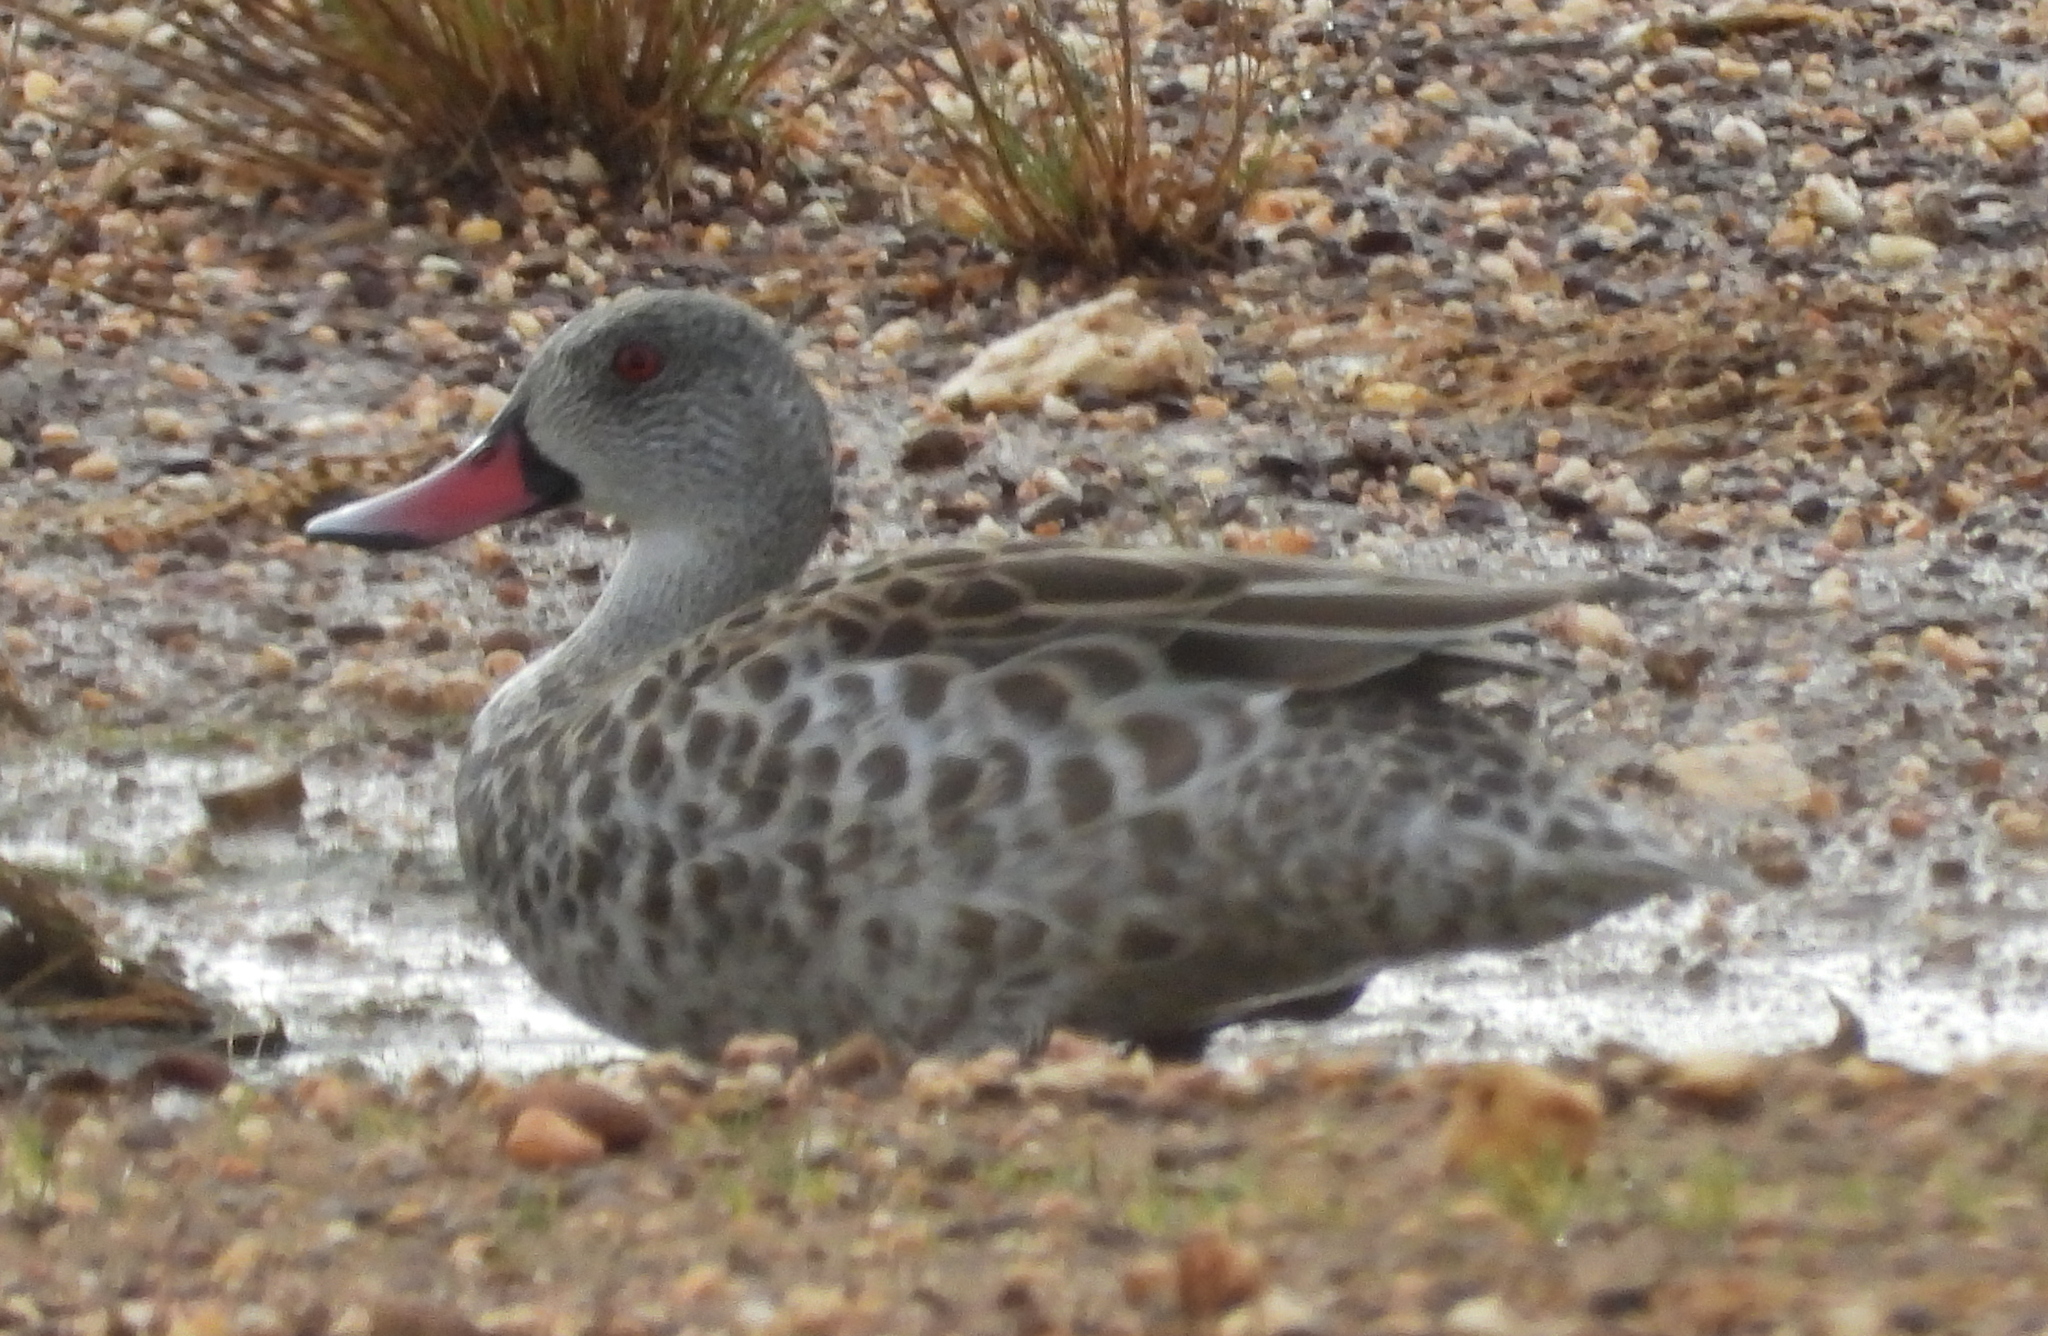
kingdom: Animalia
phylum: Chordata
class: Aves
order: Anseriformes
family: Anatidae
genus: Anas
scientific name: Anas capensis
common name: Cape teal
